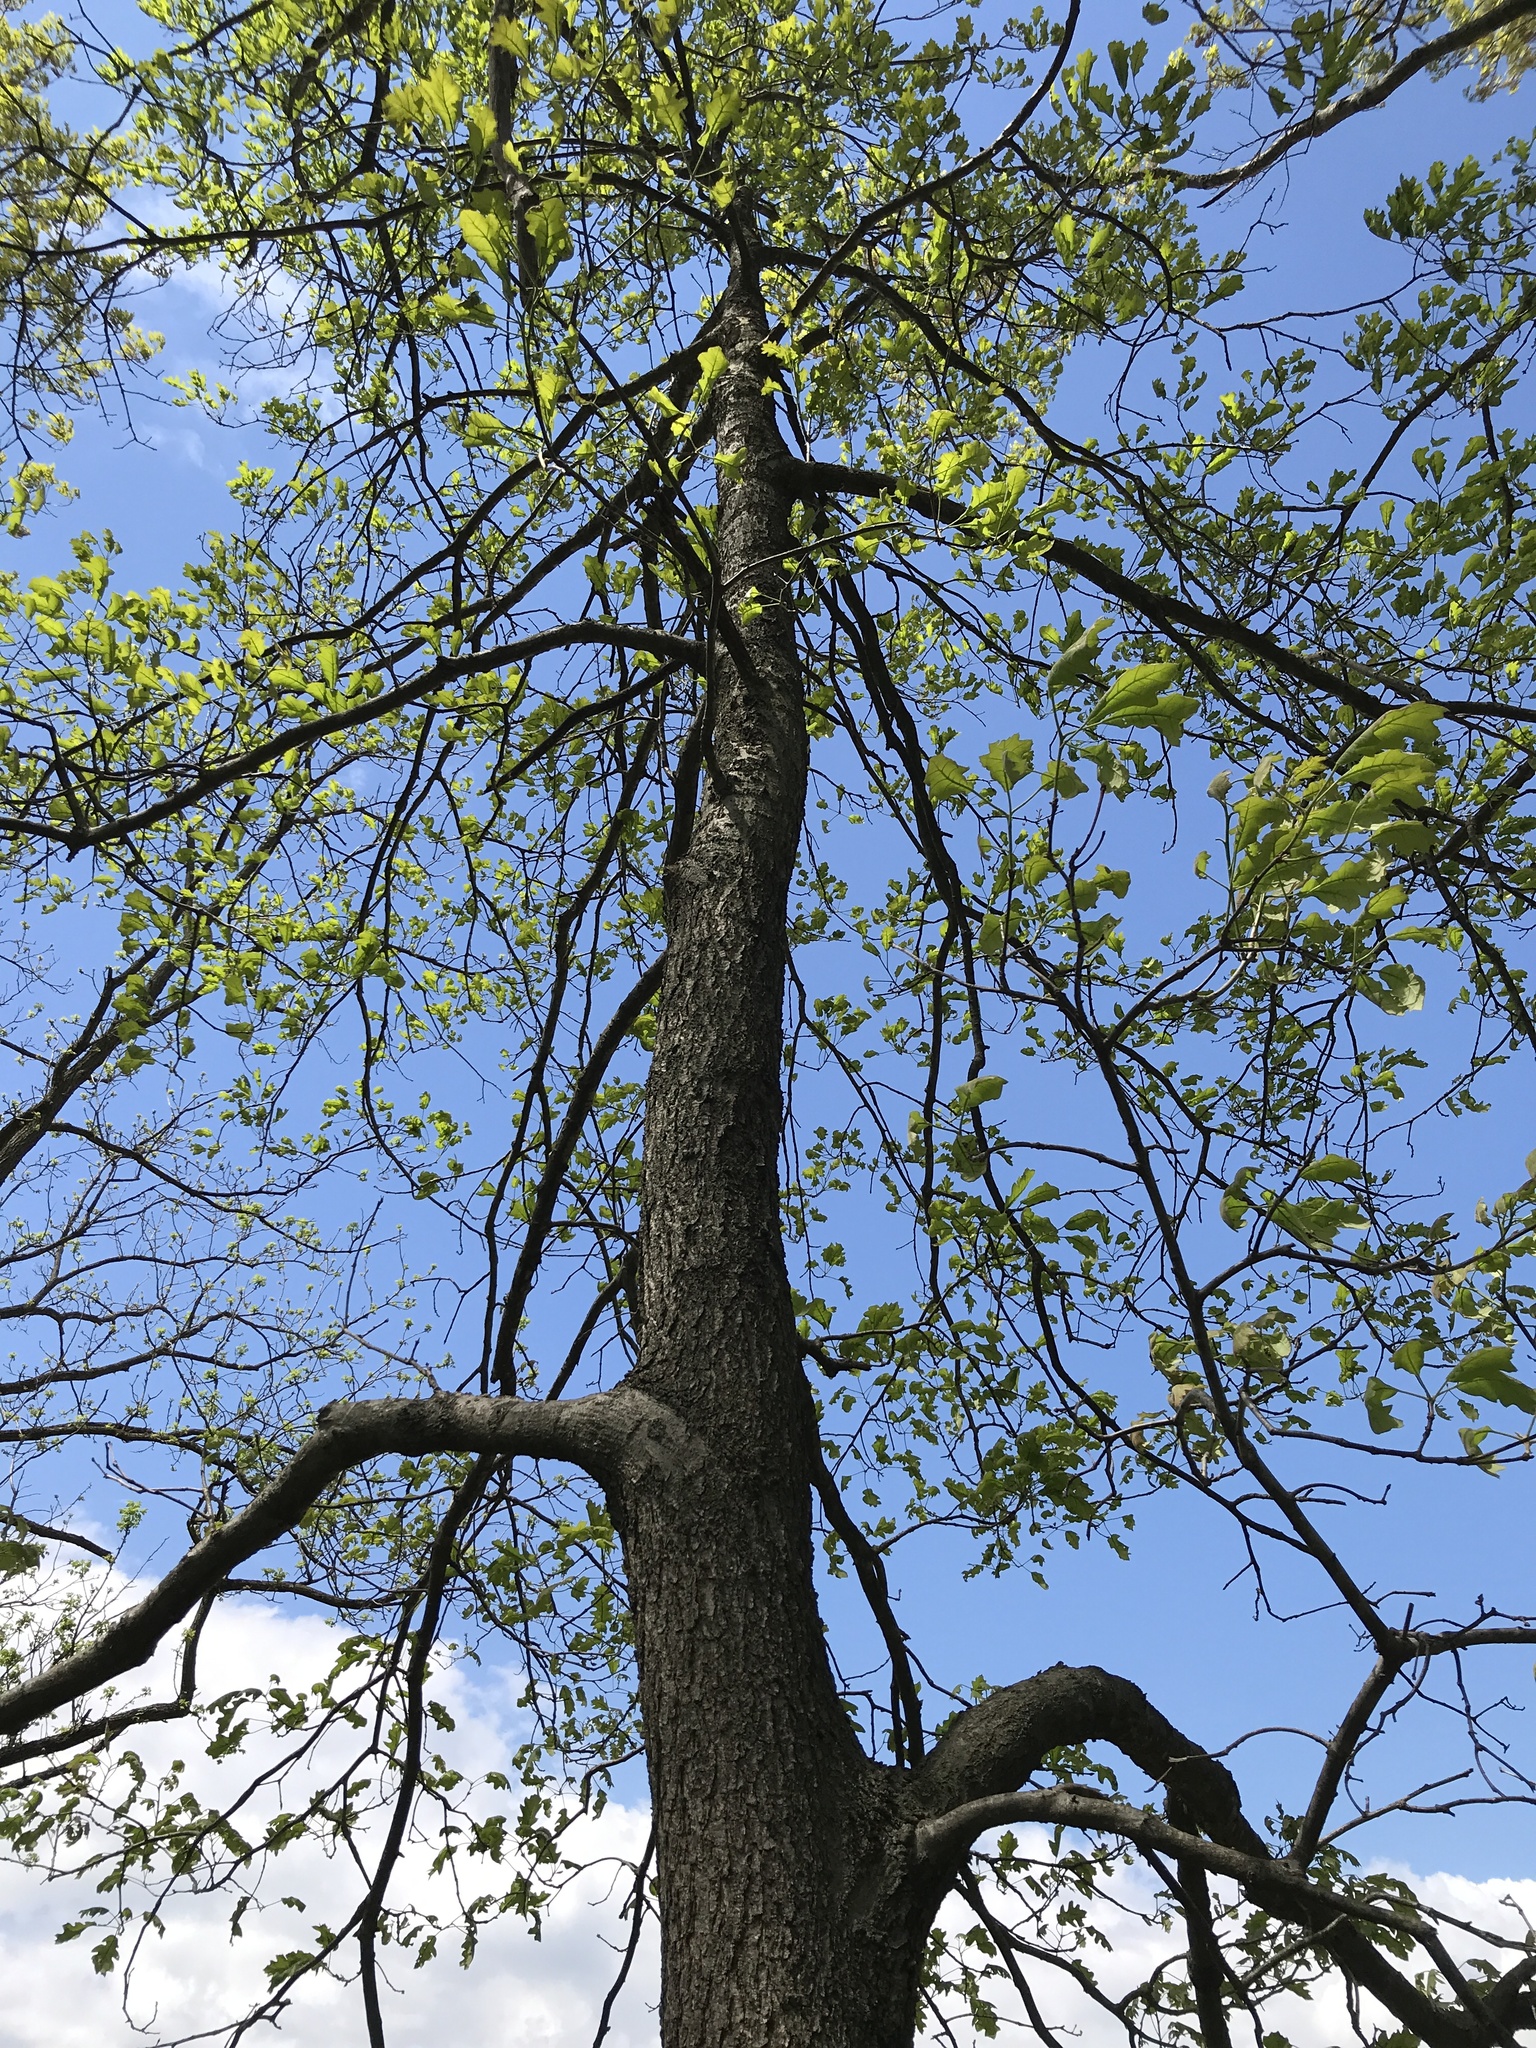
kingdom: Plantae
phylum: Tracheophyta
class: Magnoliopsida
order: Fagales
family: Fagaceae
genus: Quercus
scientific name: Quercus velutina
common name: Black oak
